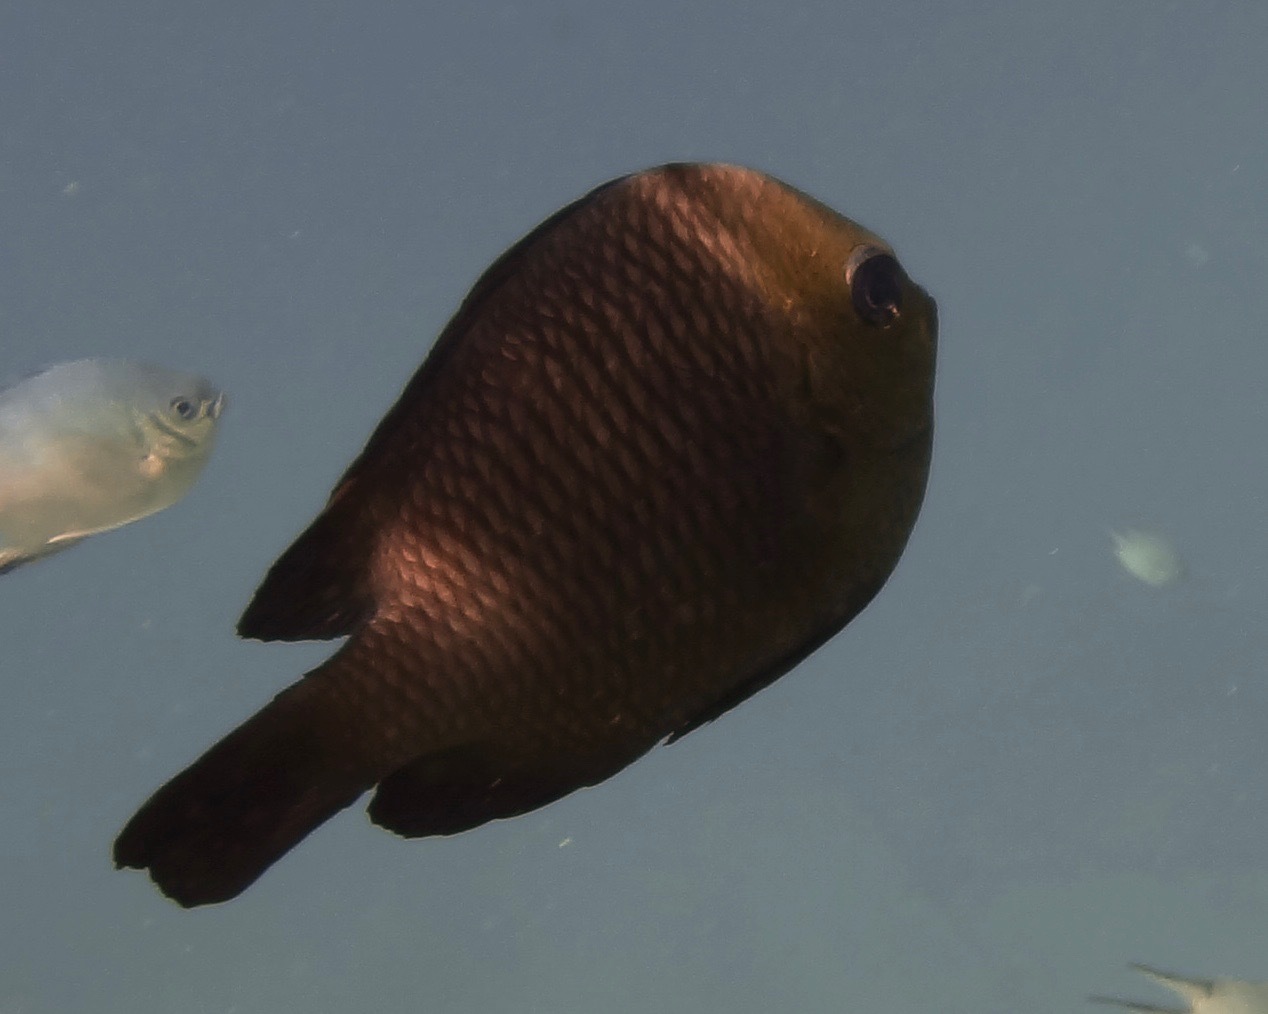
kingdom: Animalia
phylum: Chordata
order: Perciformes
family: Pomacentridae
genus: Dascyllus
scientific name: Dascyllus trimaculatus
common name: Threespot dascyllus
